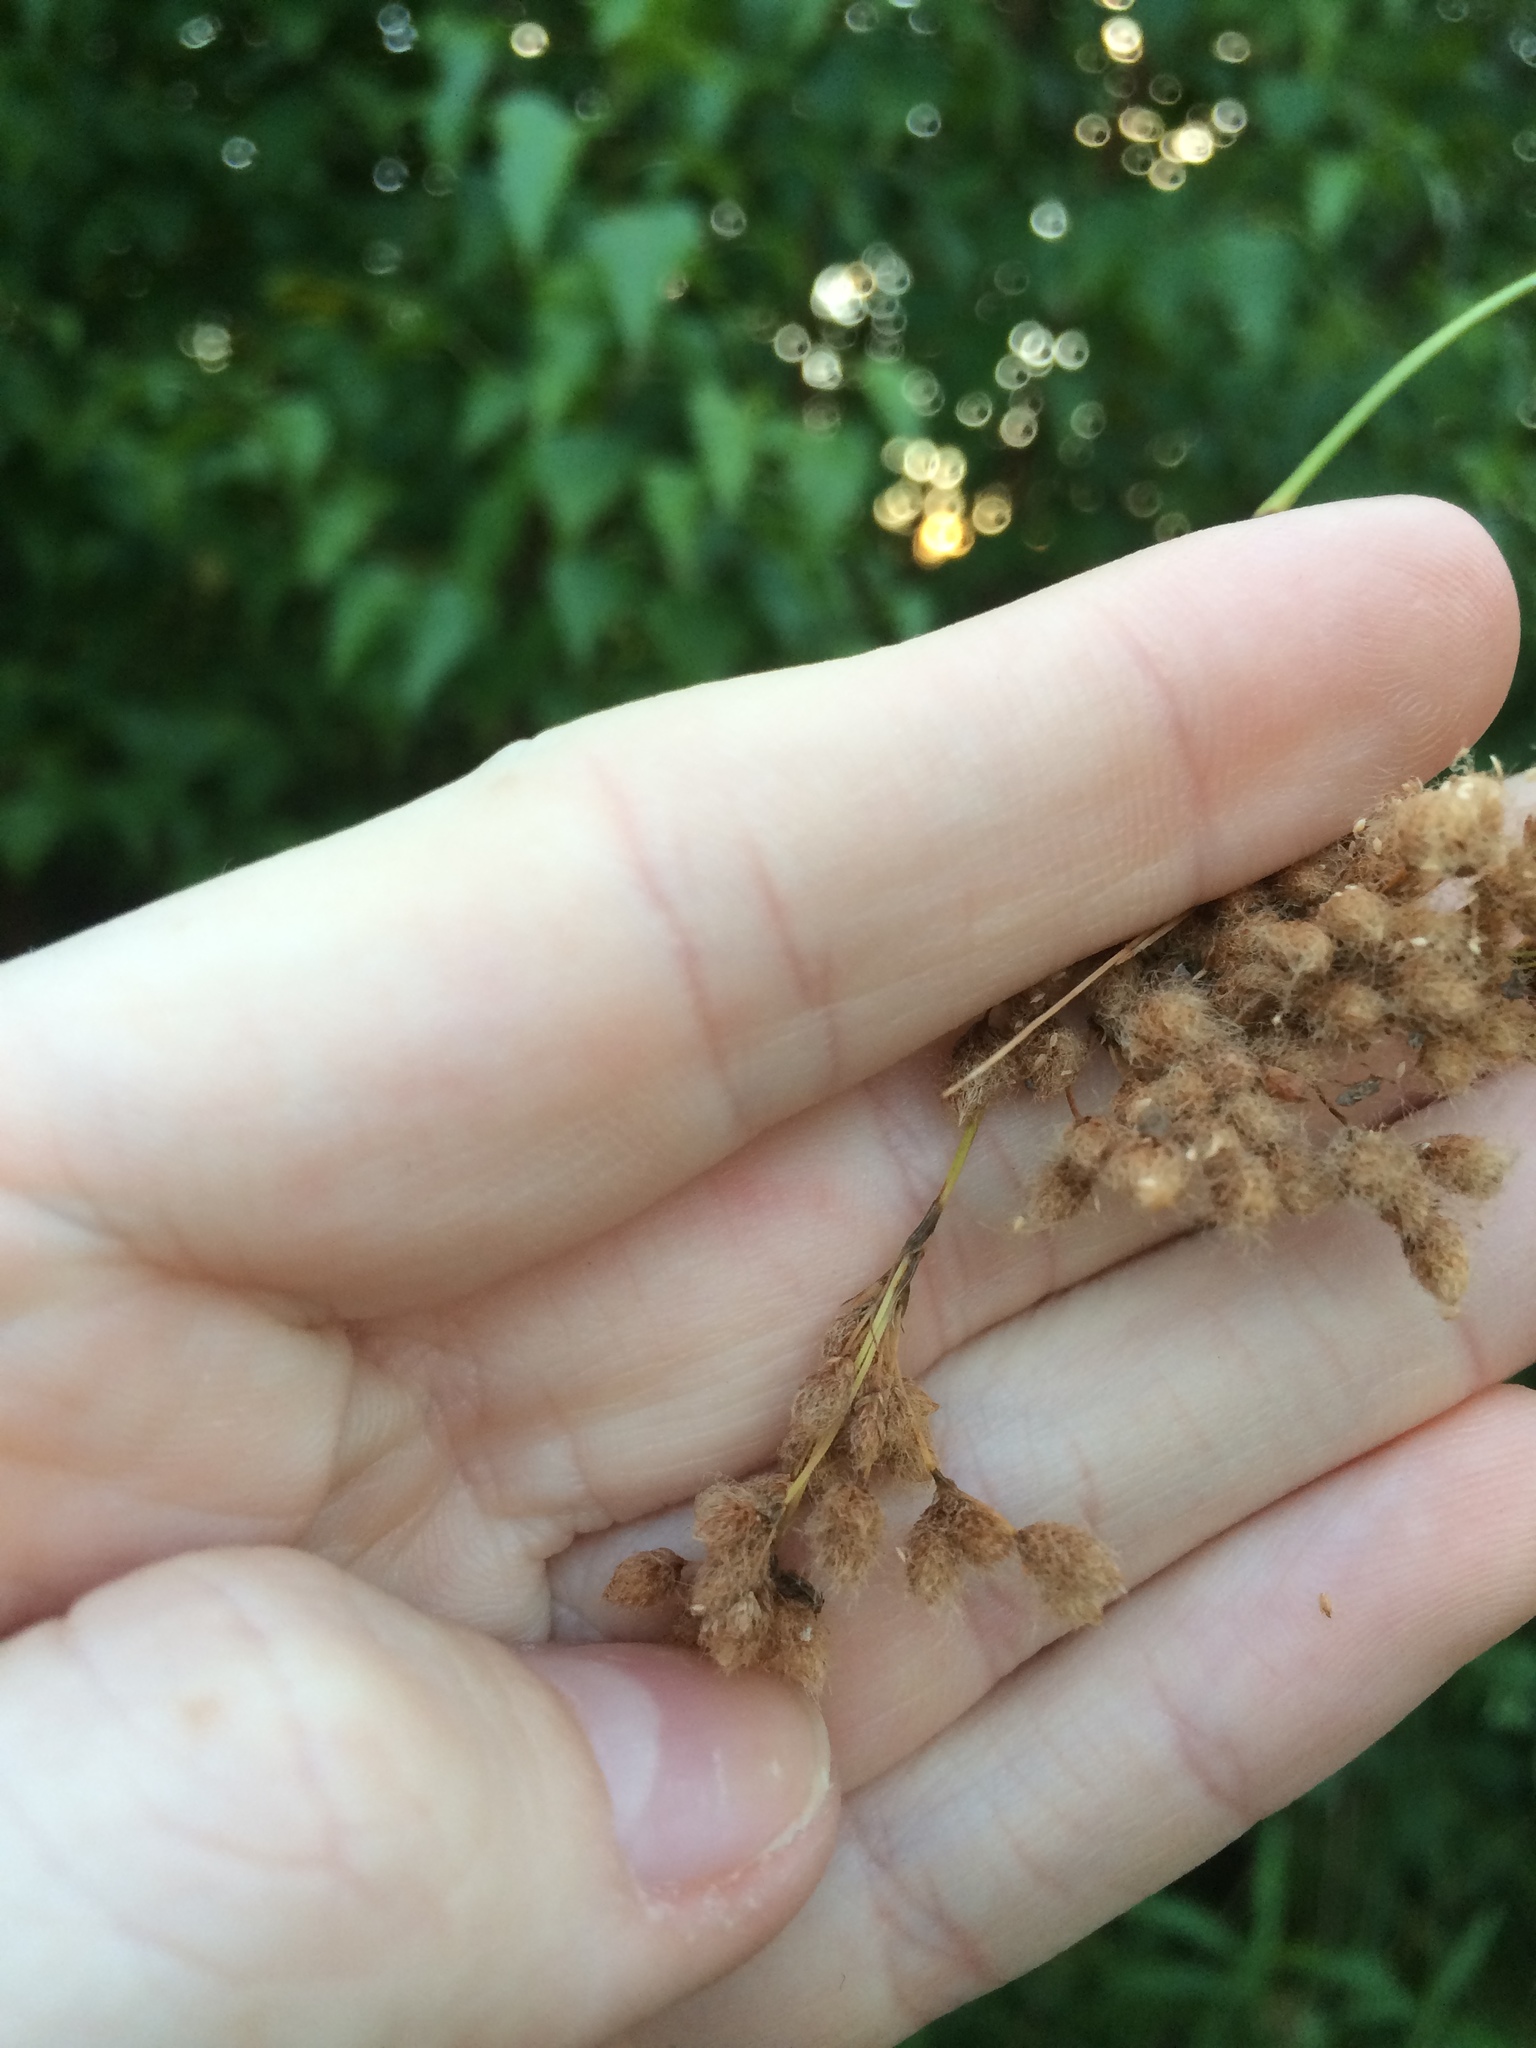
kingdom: Plantae
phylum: Tracheophyta
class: Liliopsida
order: Poales
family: Cyperaceae
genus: Scirpus
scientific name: Scirpus cyperinus
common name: Black-sheathed bulrush
